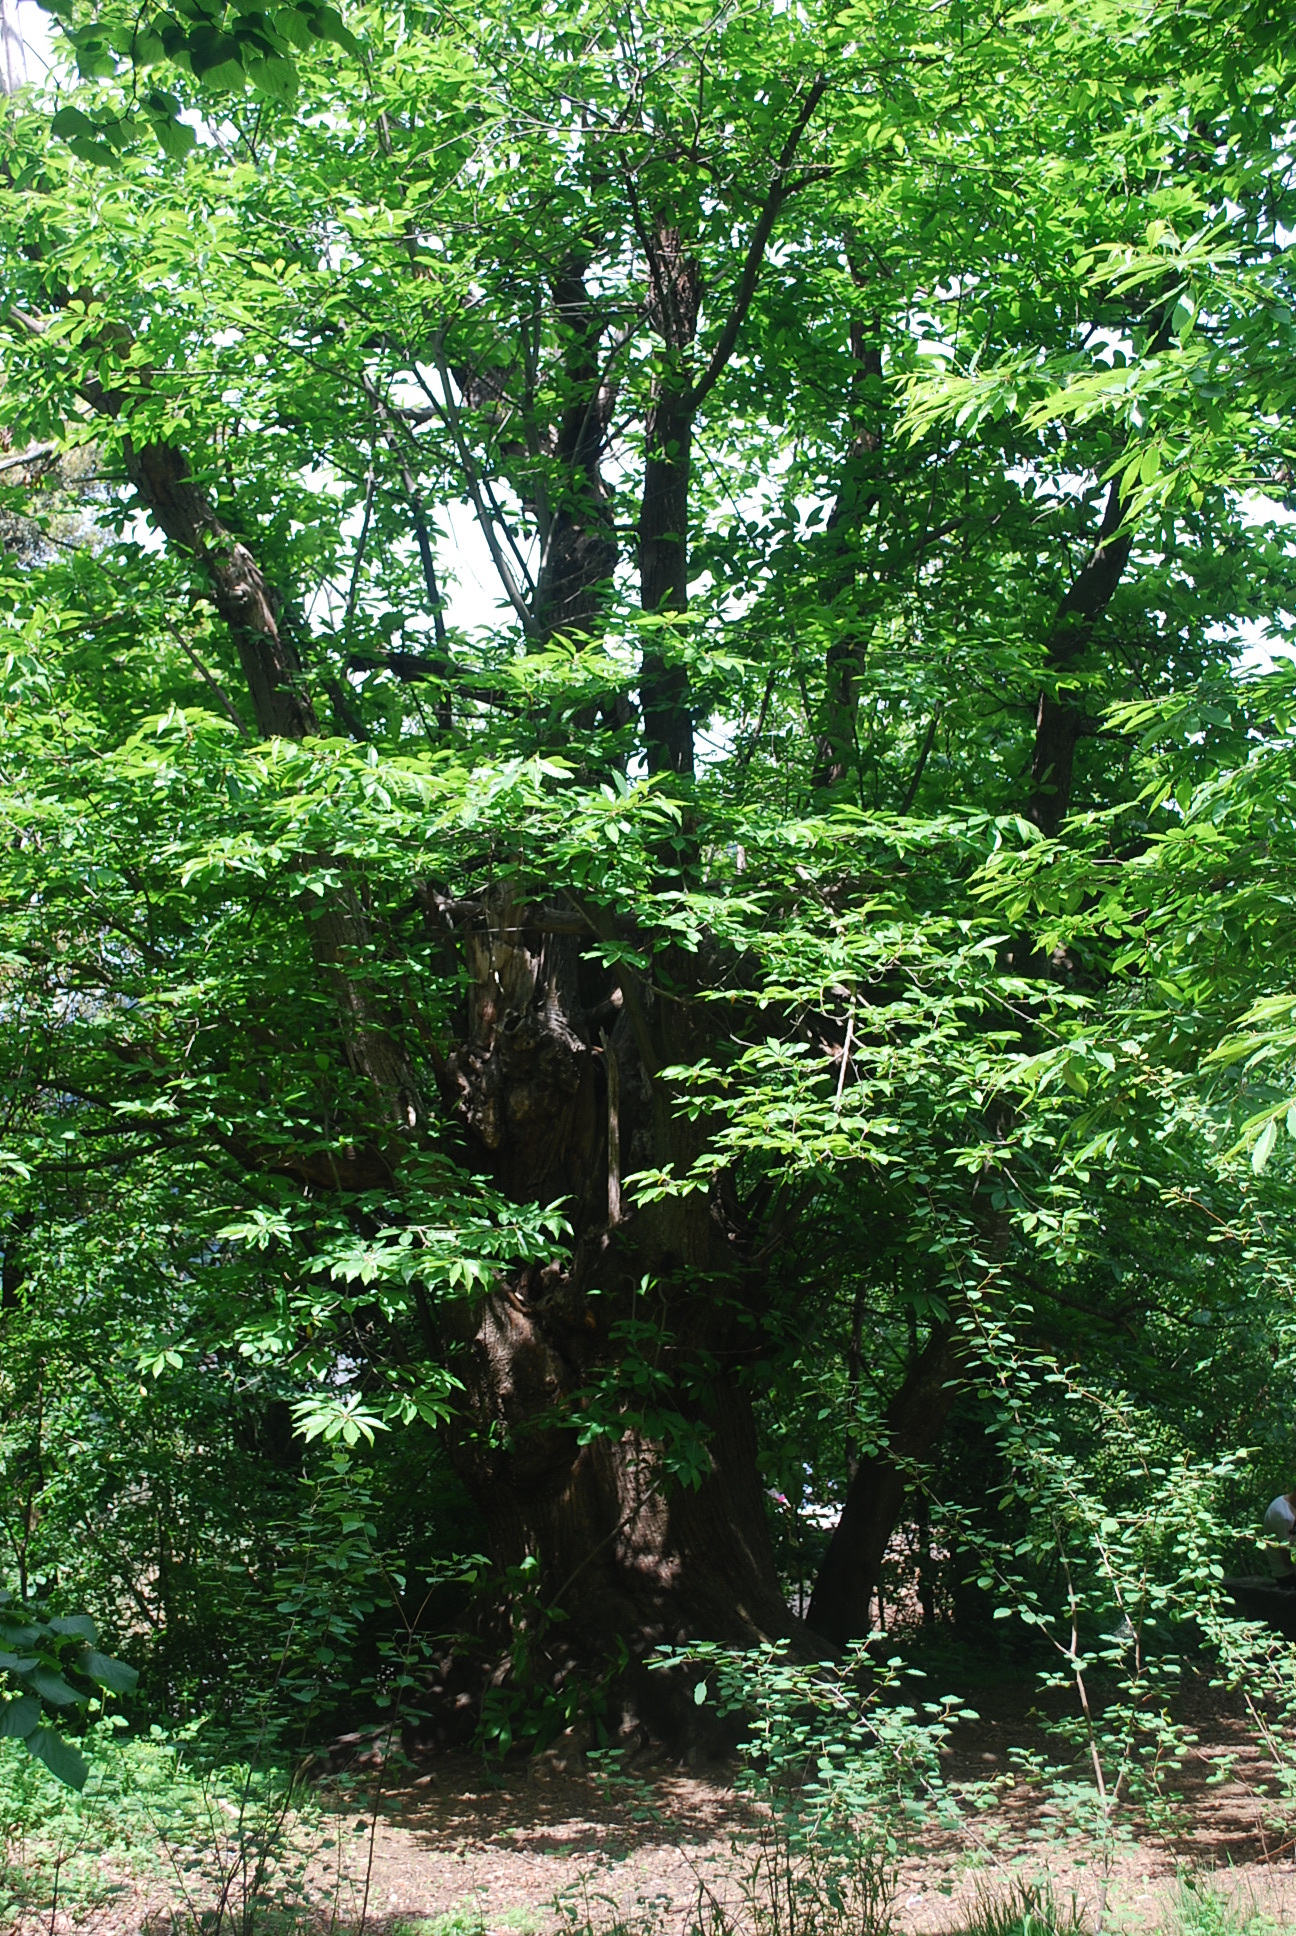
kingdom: Plantae
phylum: Tracheophyta
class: Magnoliopsida
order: Fagales
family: Fagaceae
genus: Castanea
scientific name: Castanea sativa
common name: Sweet chestnut
